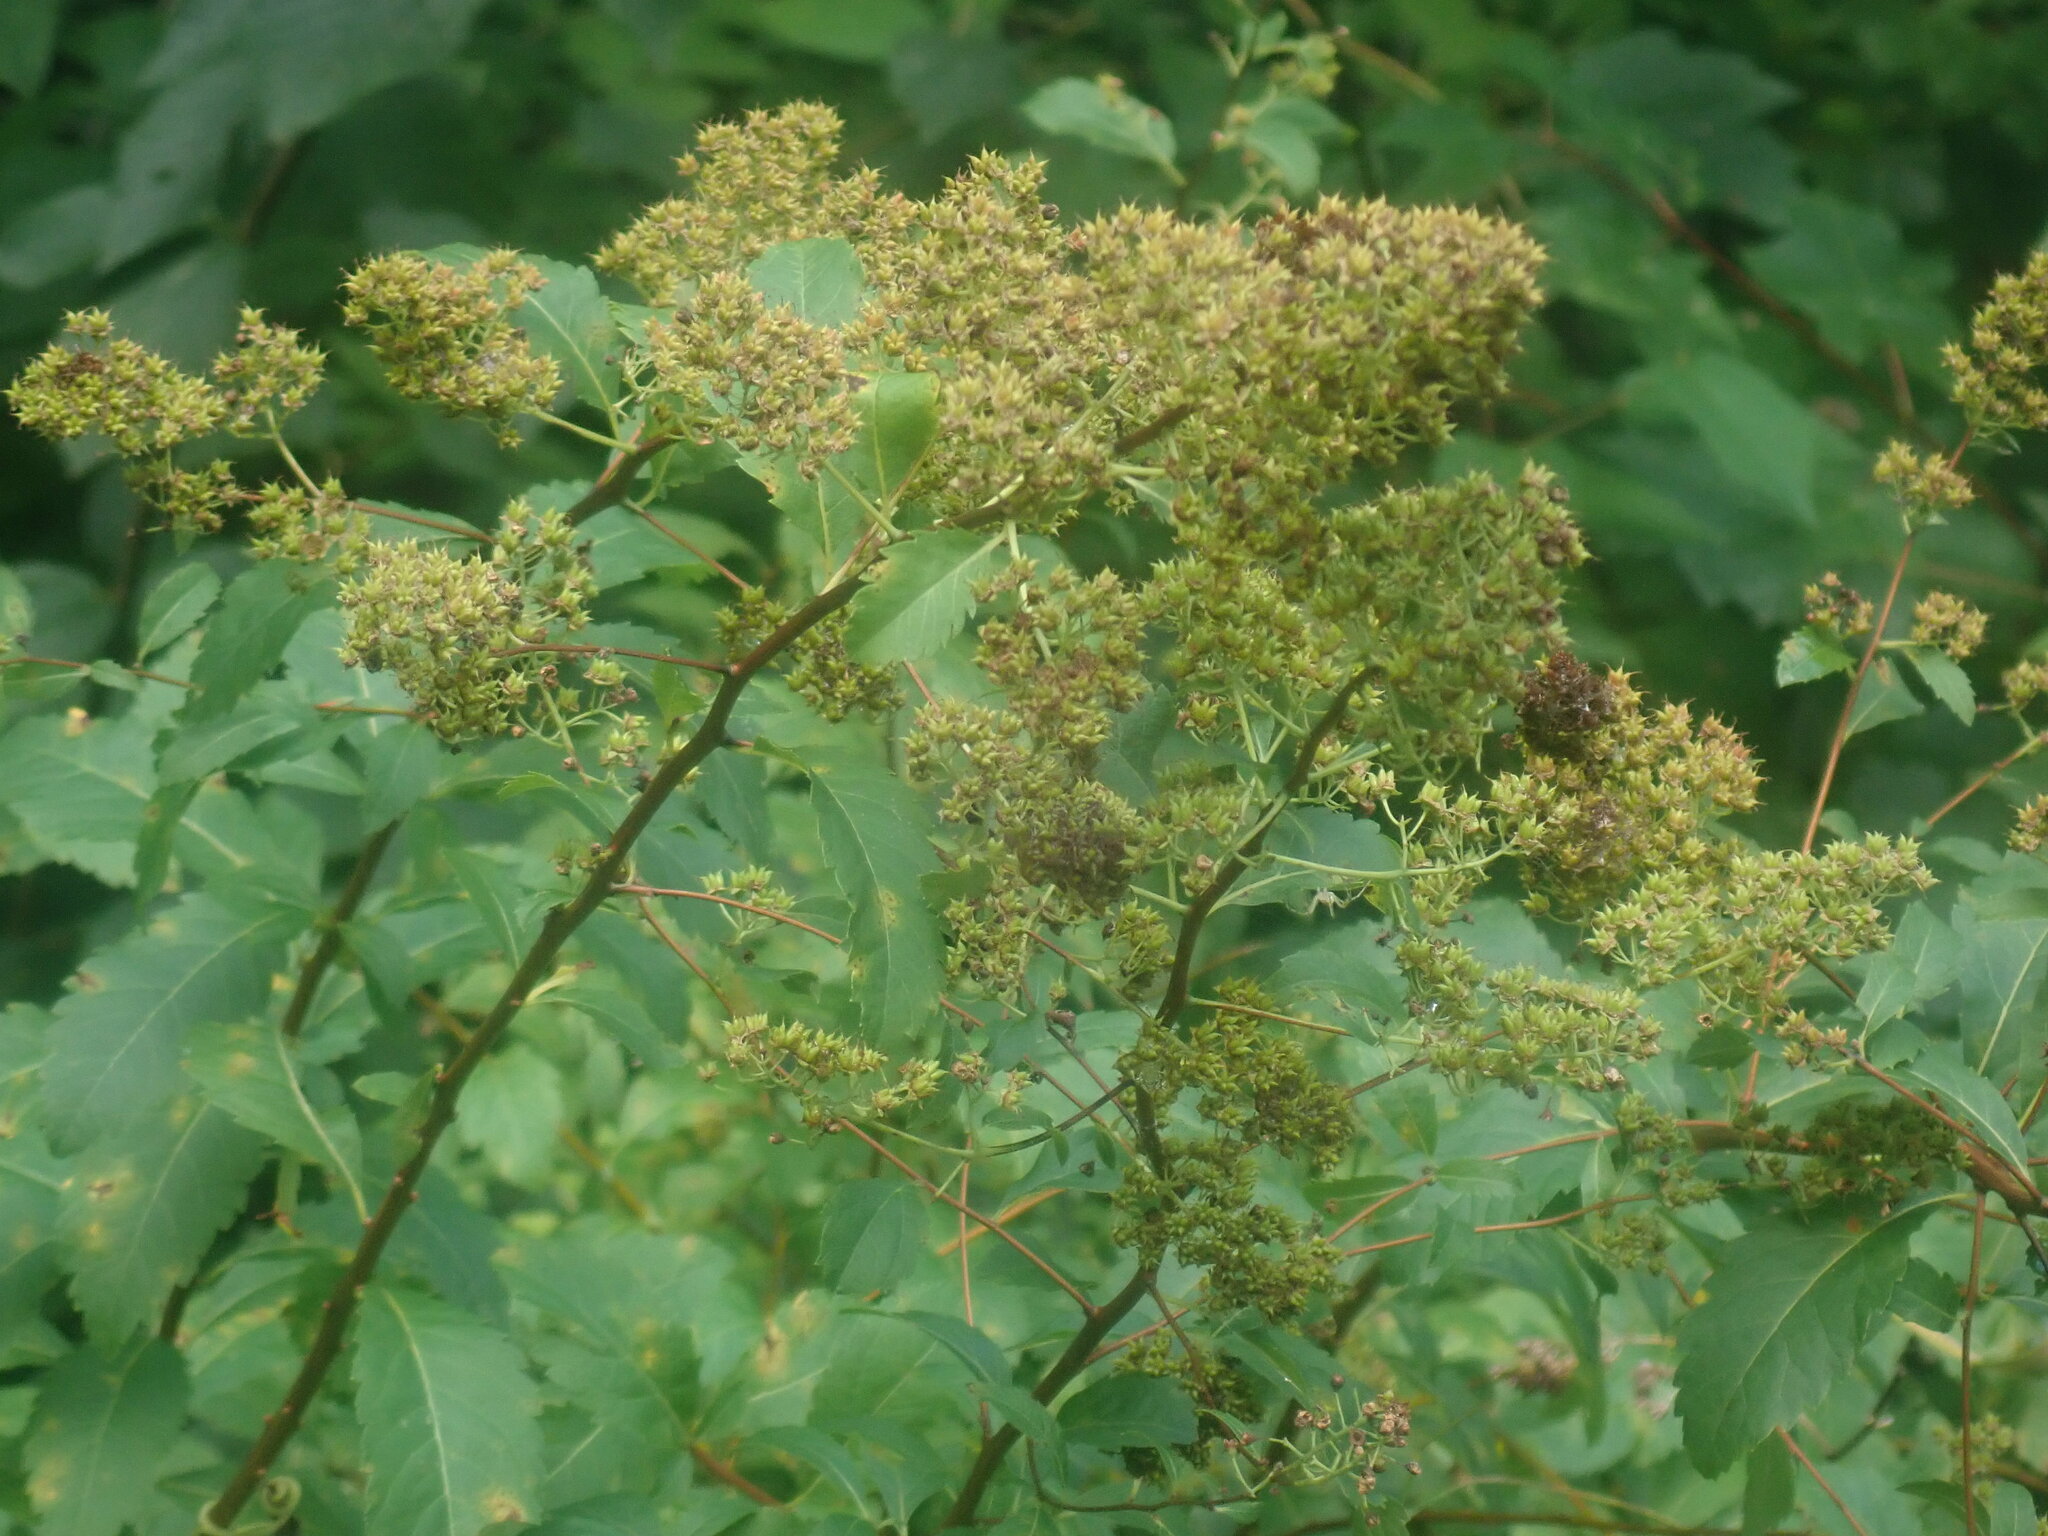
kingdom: Plantae
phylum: Tracheophyta
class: Magnoliopsida
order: Rosales
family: Rosaceae
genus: Spiraea
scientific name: Spiraea alba
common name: Pale bridewort
